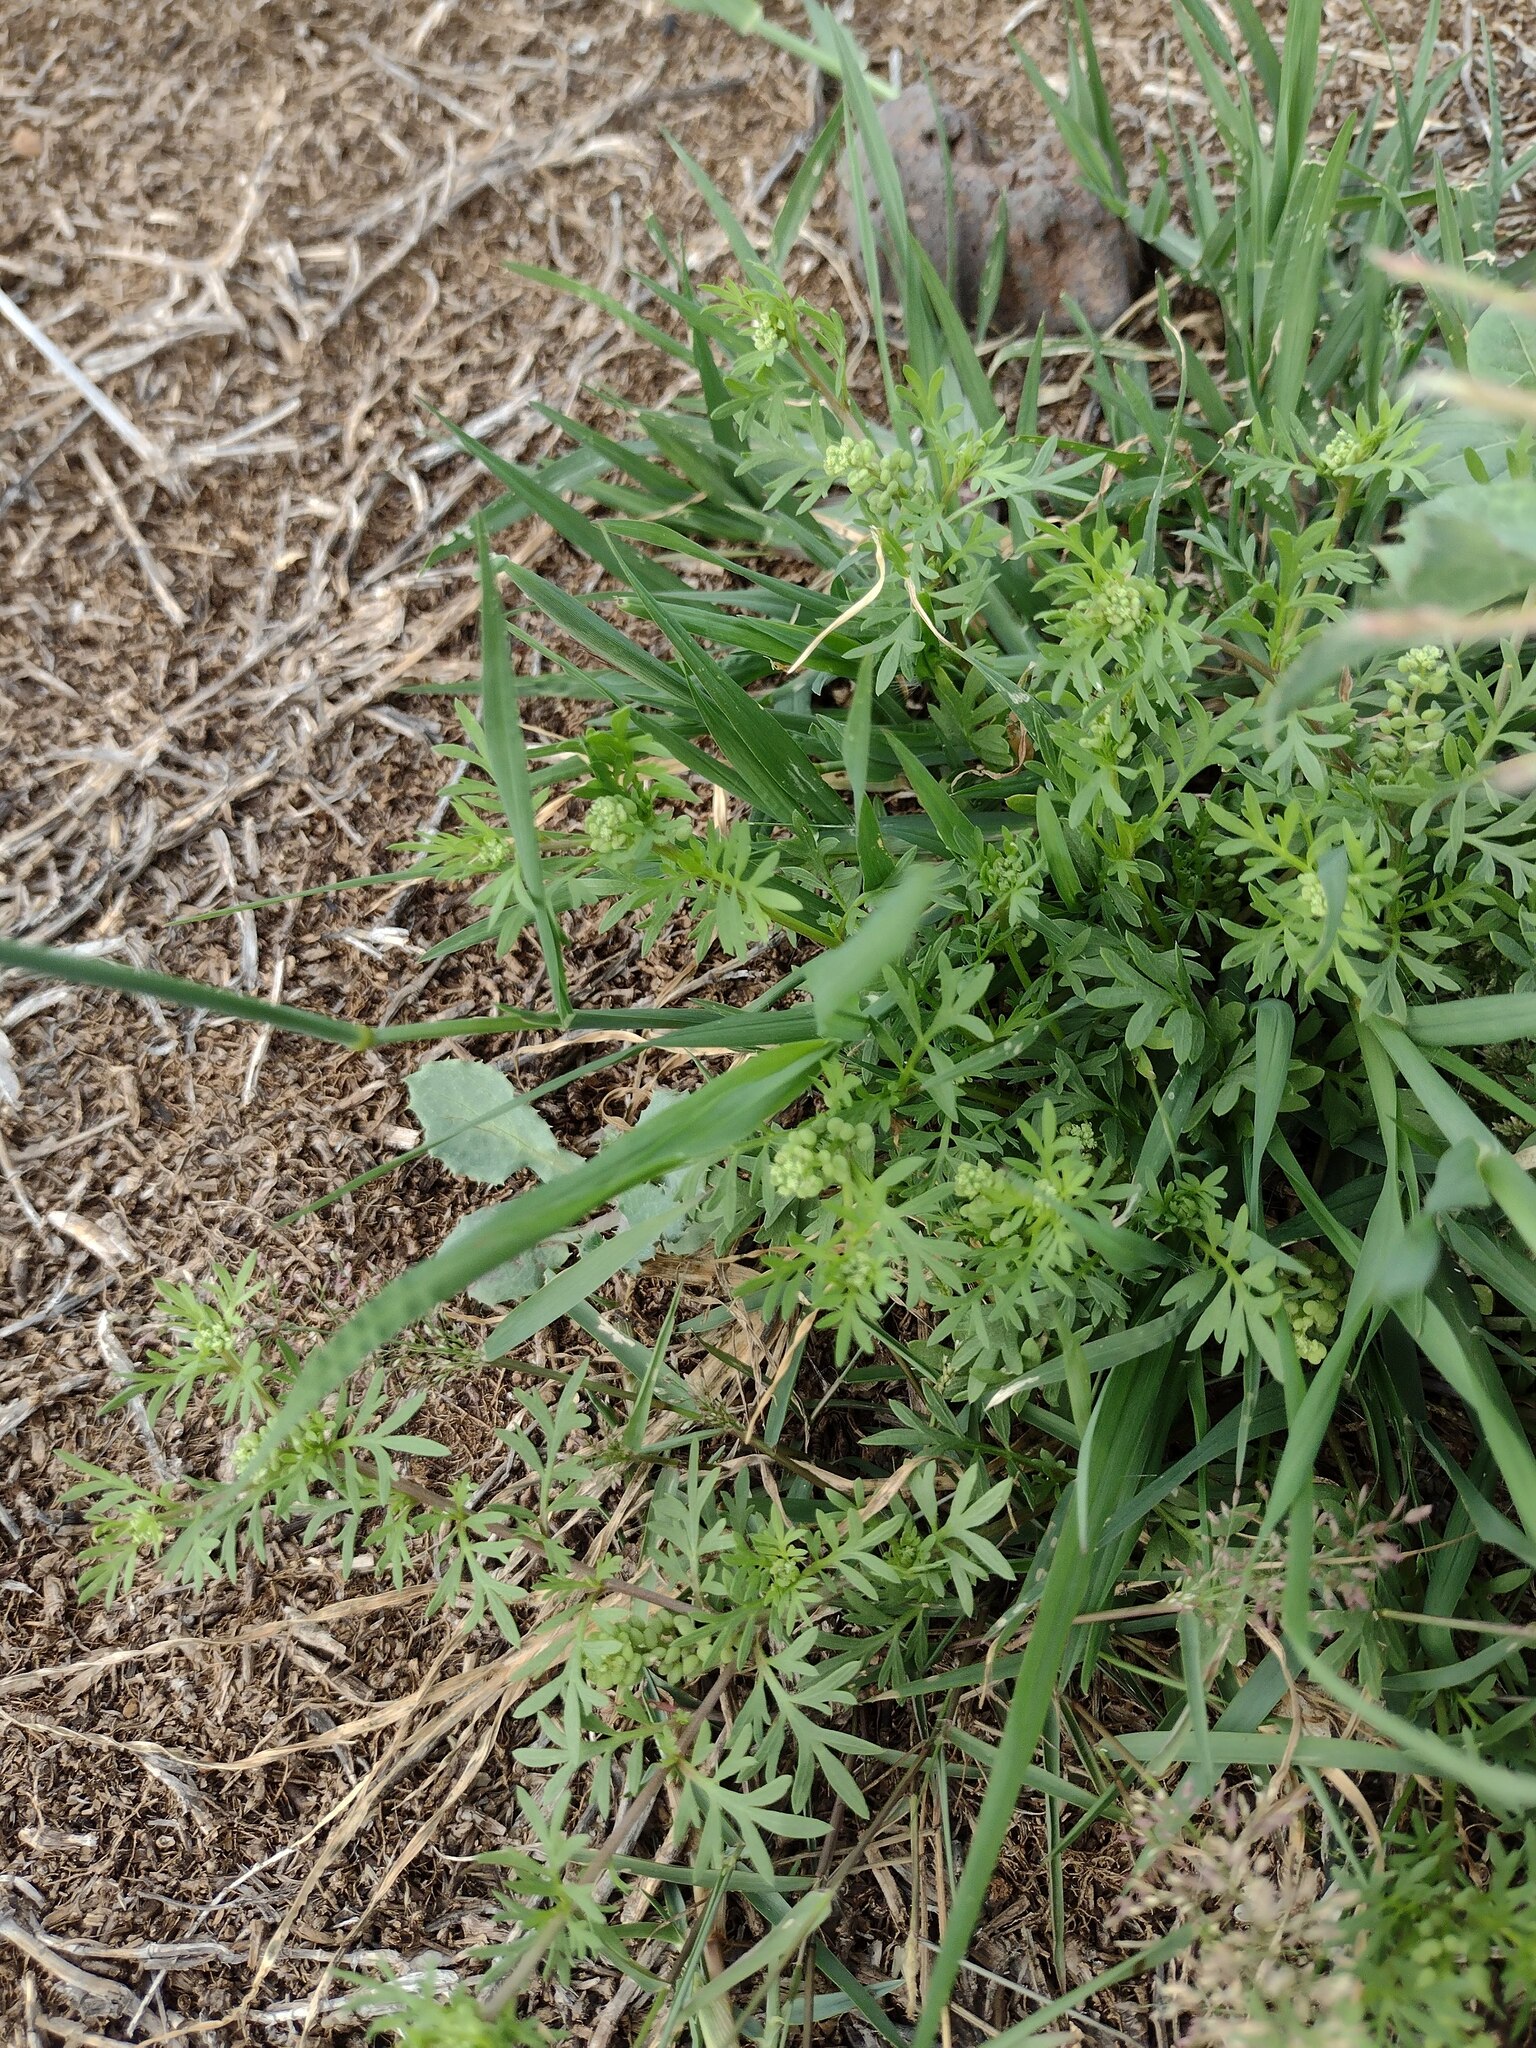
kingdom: Plantae
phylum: Tracheophyta
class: Magnoliopsida
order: Brassicales
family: Brassicaceae
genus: Lepidium
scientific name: Lepidium didymum
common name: Lesser swinecress
